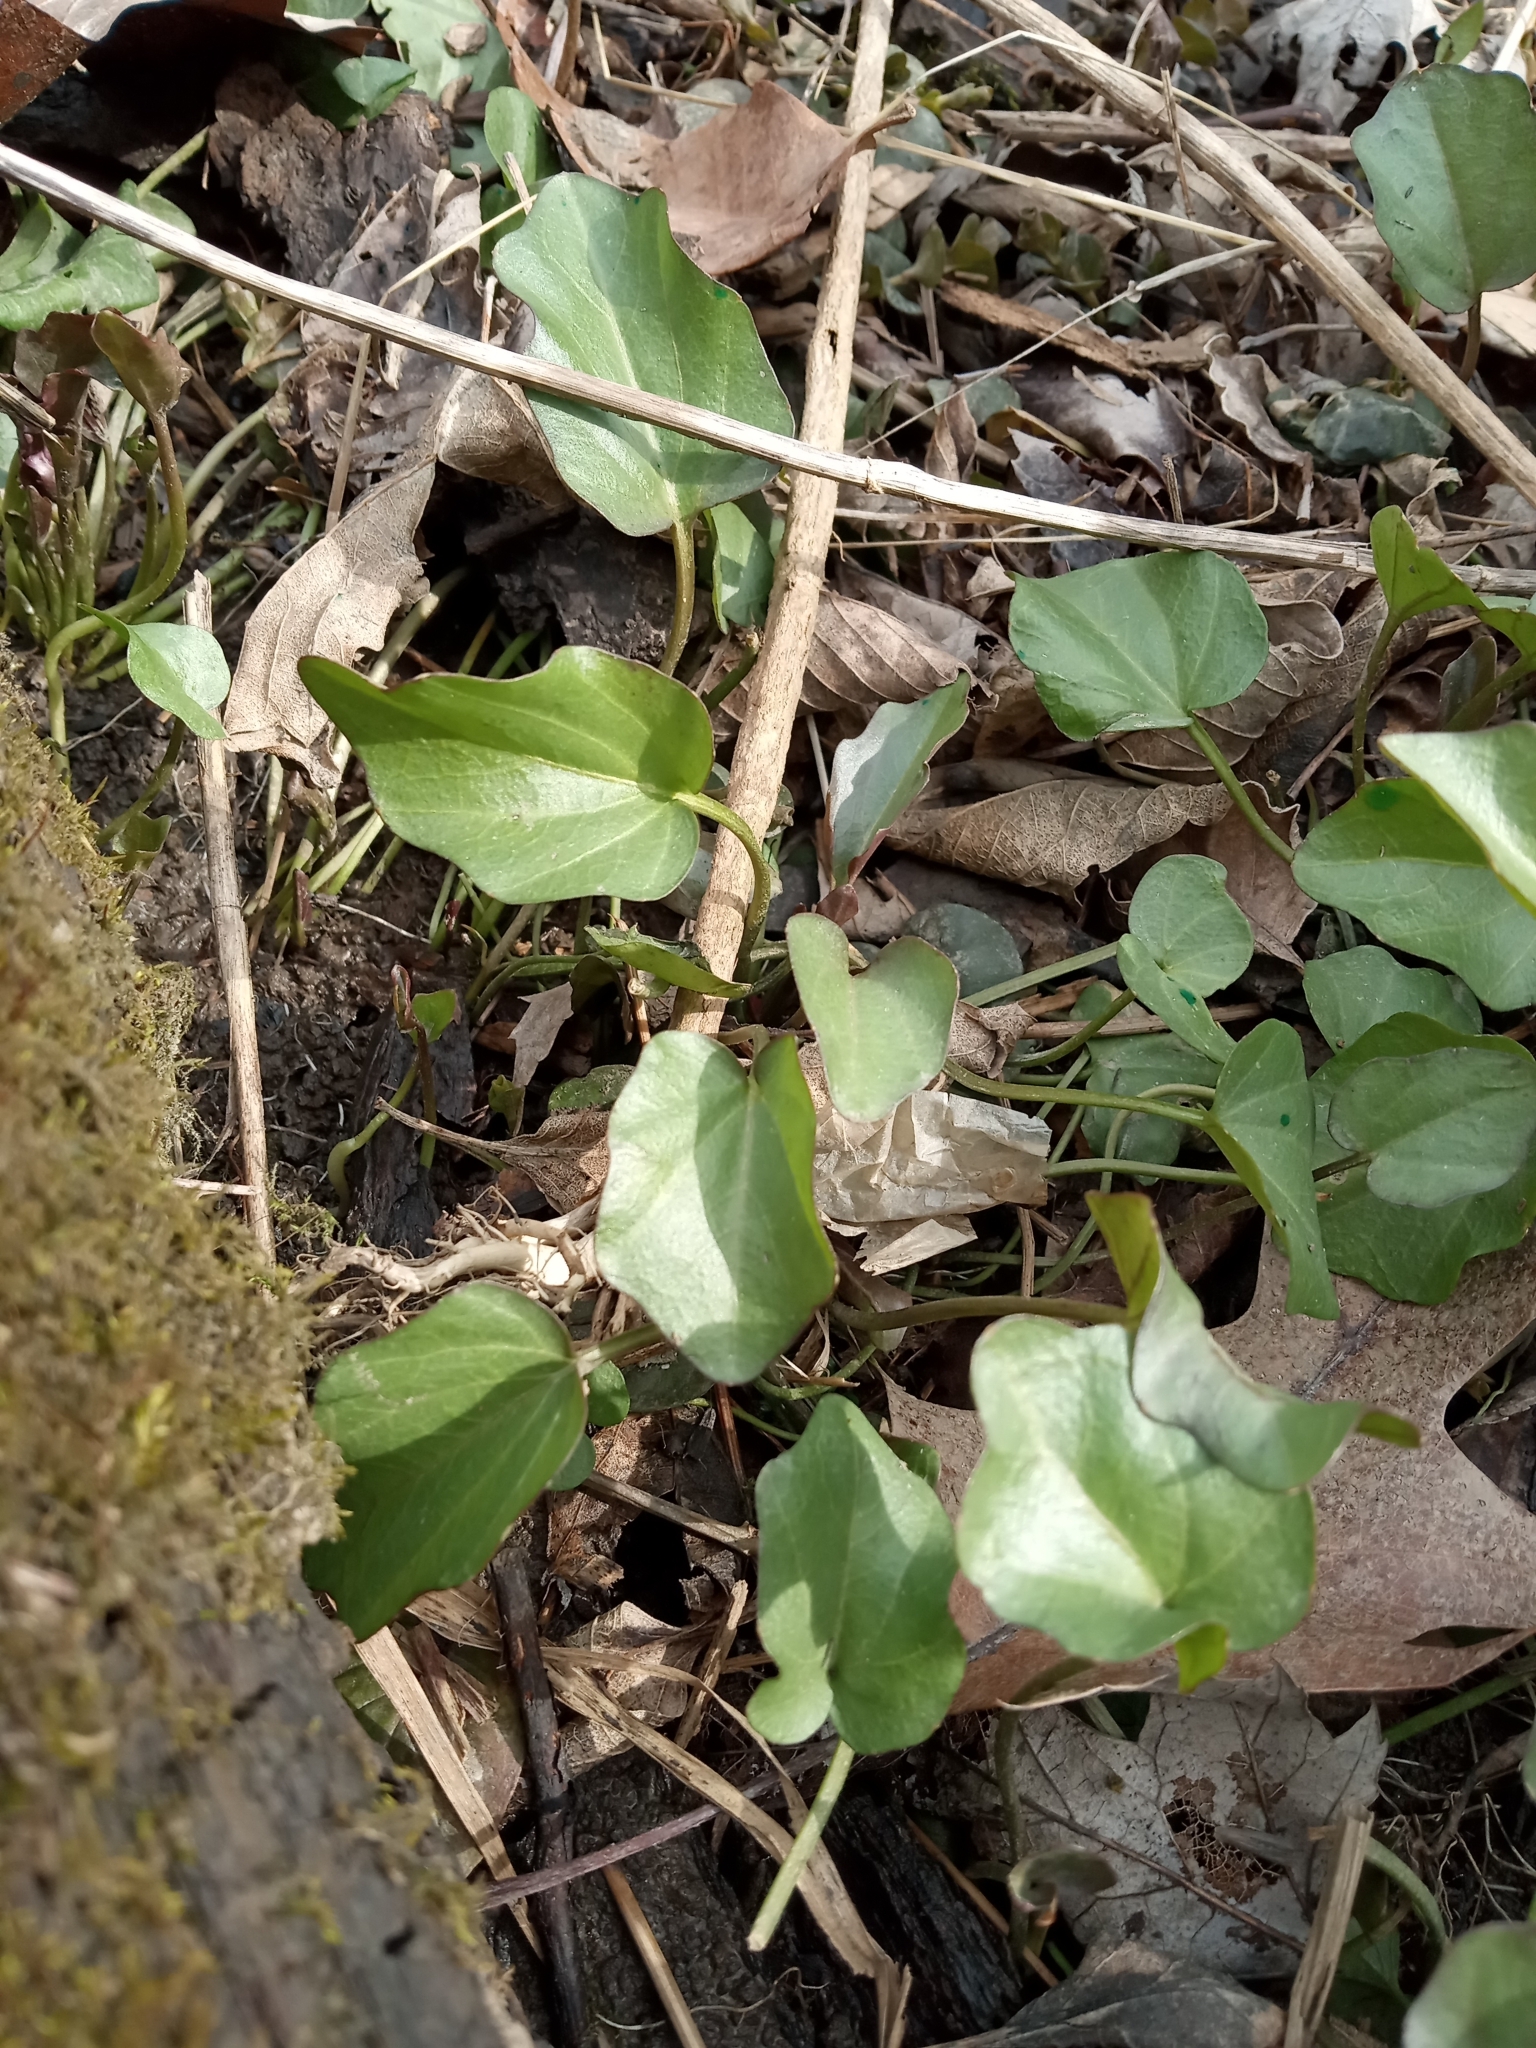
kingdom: Plantae
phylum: Tracheophyta
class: Magnoliopsida
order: Brassicales
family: Brassicaceae
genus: Cardamine
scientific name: Cardamine
